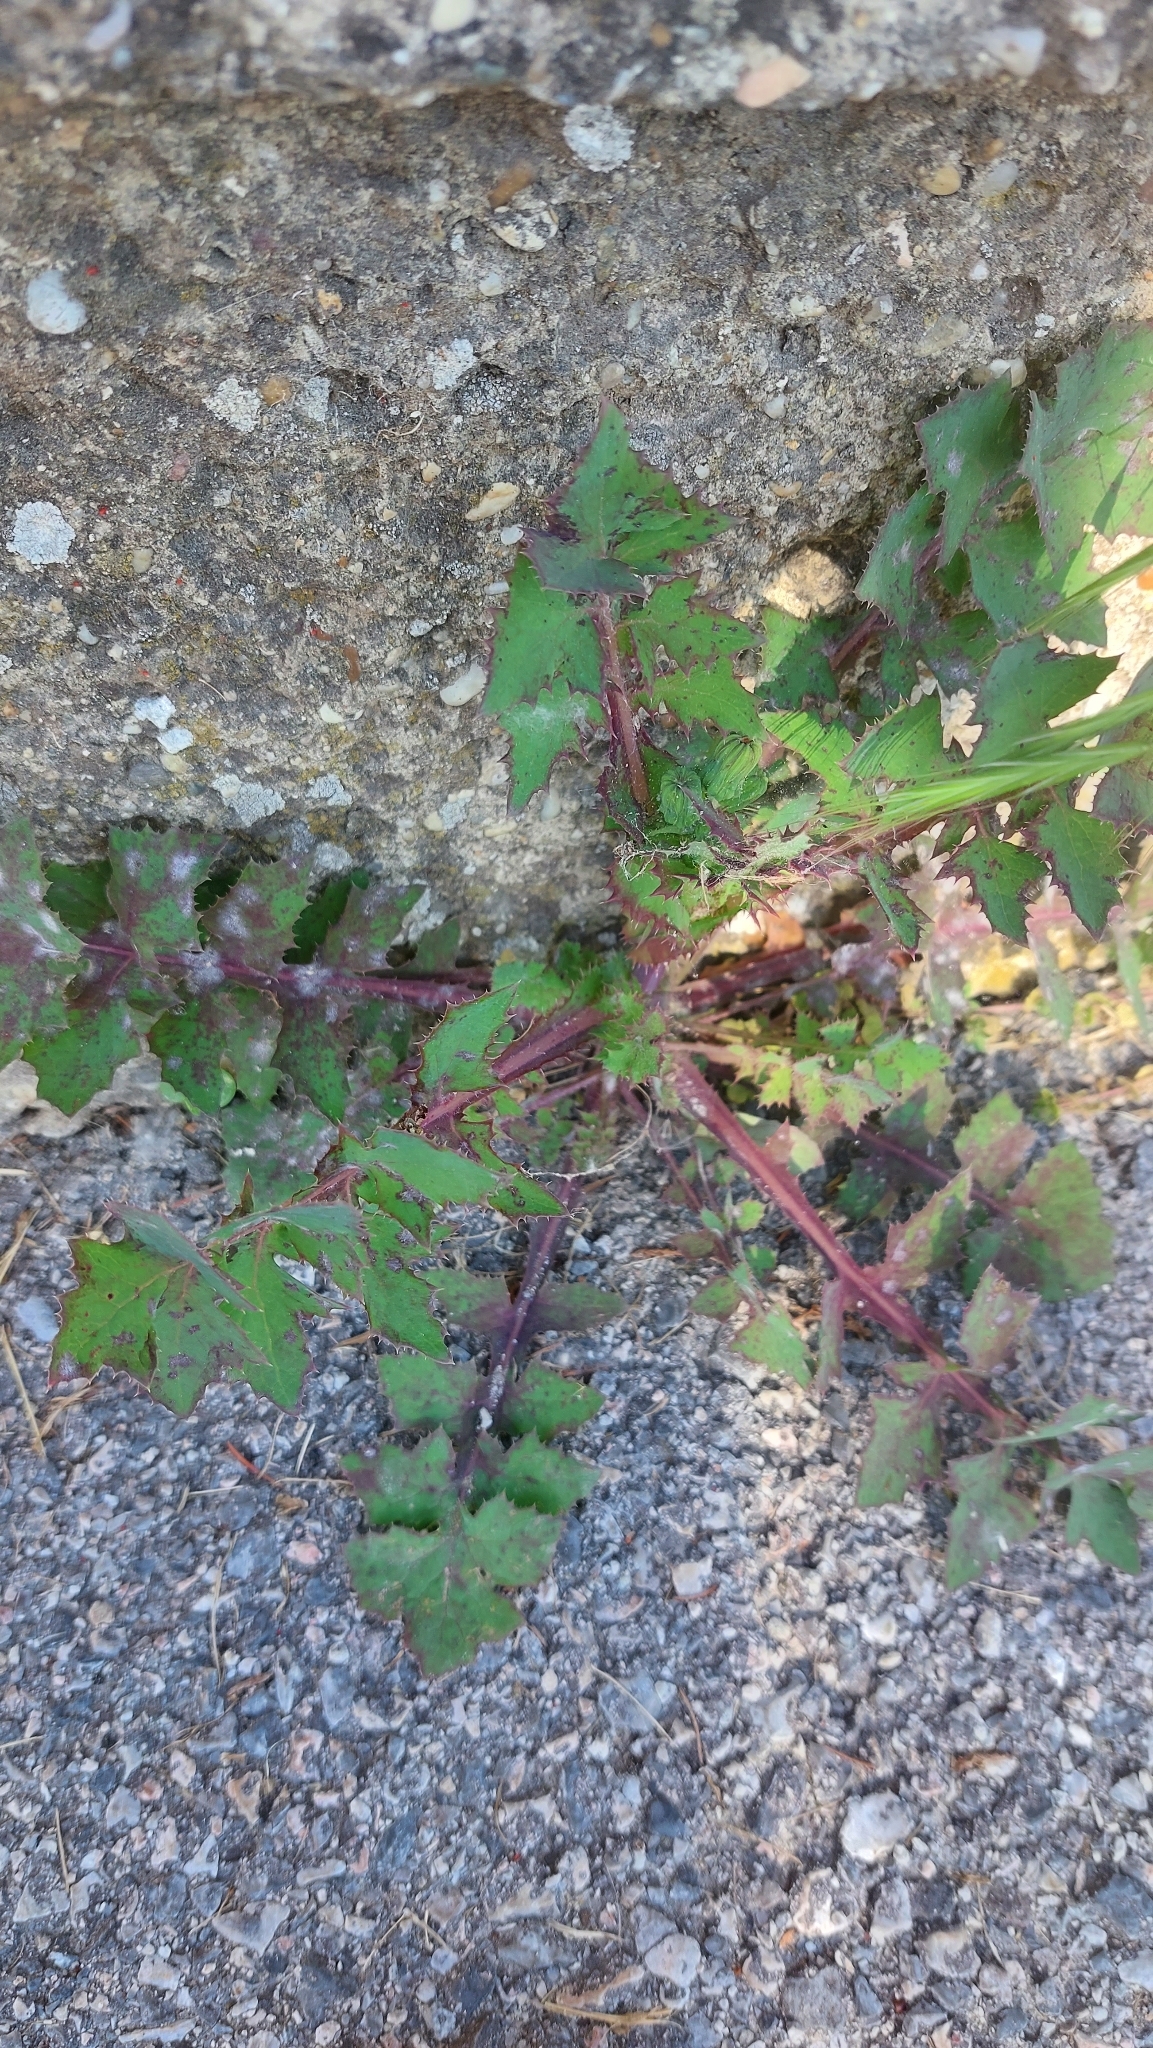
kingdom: Plantae
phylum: Tracheophyta
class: Magnoliopsida
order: Asterales
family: Asteraceae
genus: Sonchus
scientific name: Sonchus oleraceus
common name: Common sowthistle
